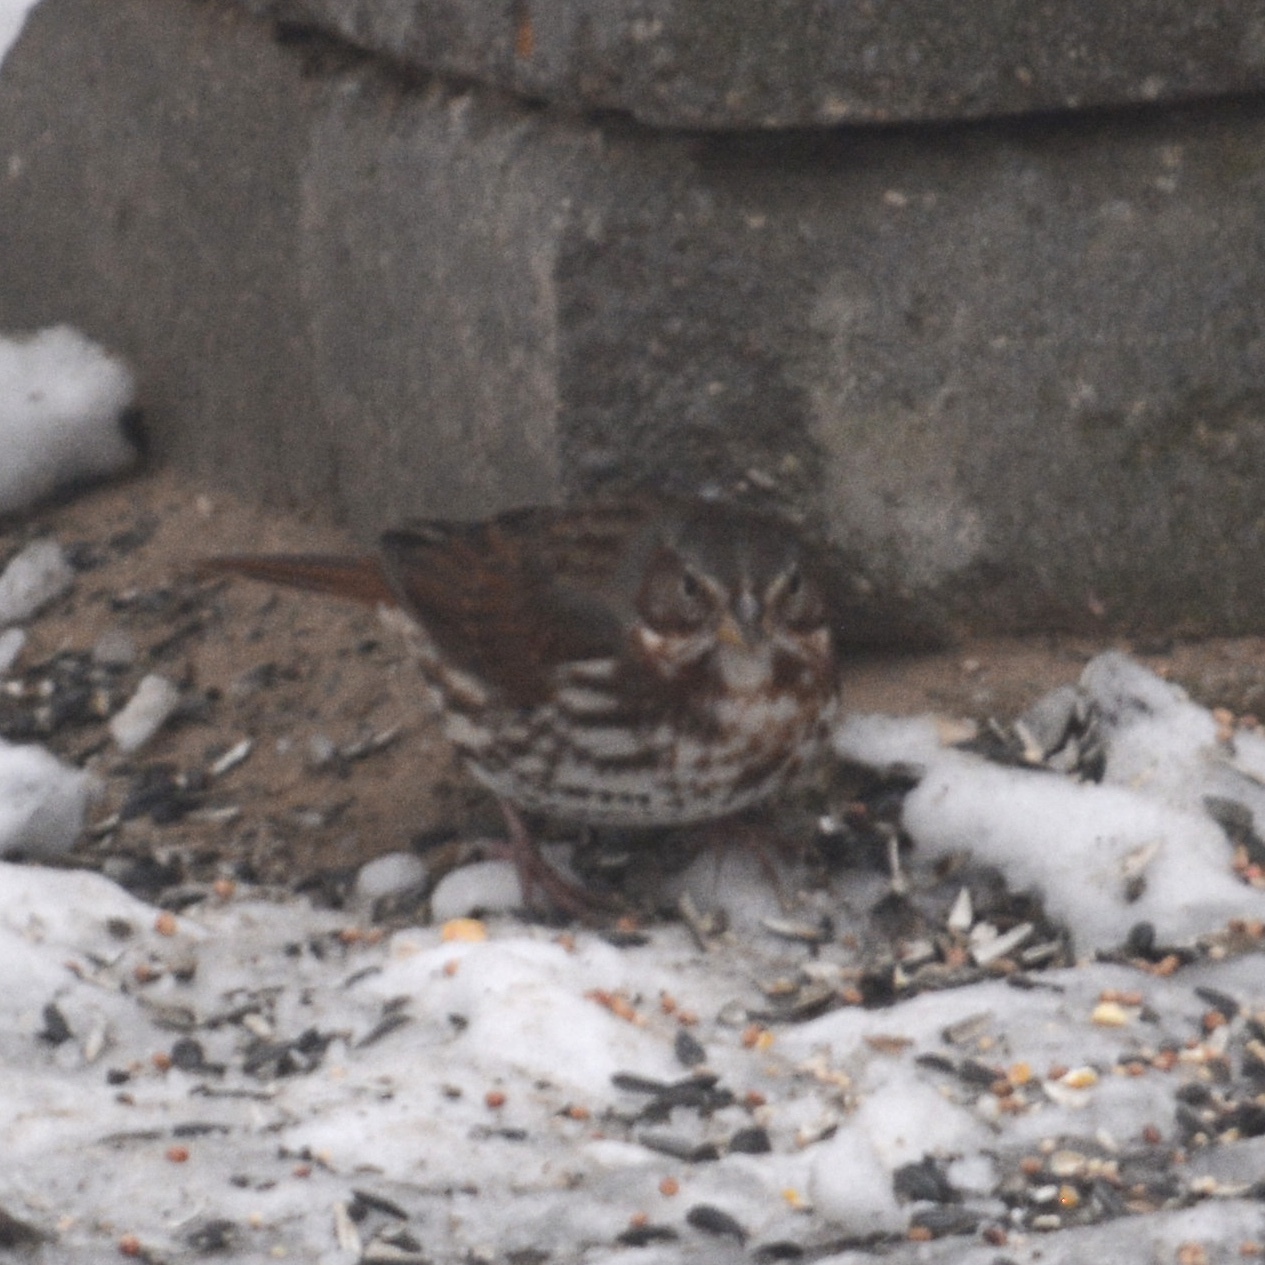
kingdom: Animalia
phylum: Chordata
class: Aves
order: Passeriformes
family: Passerellidae
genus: Passerella
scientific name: Passerella iliaca
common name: Fox sparrow
